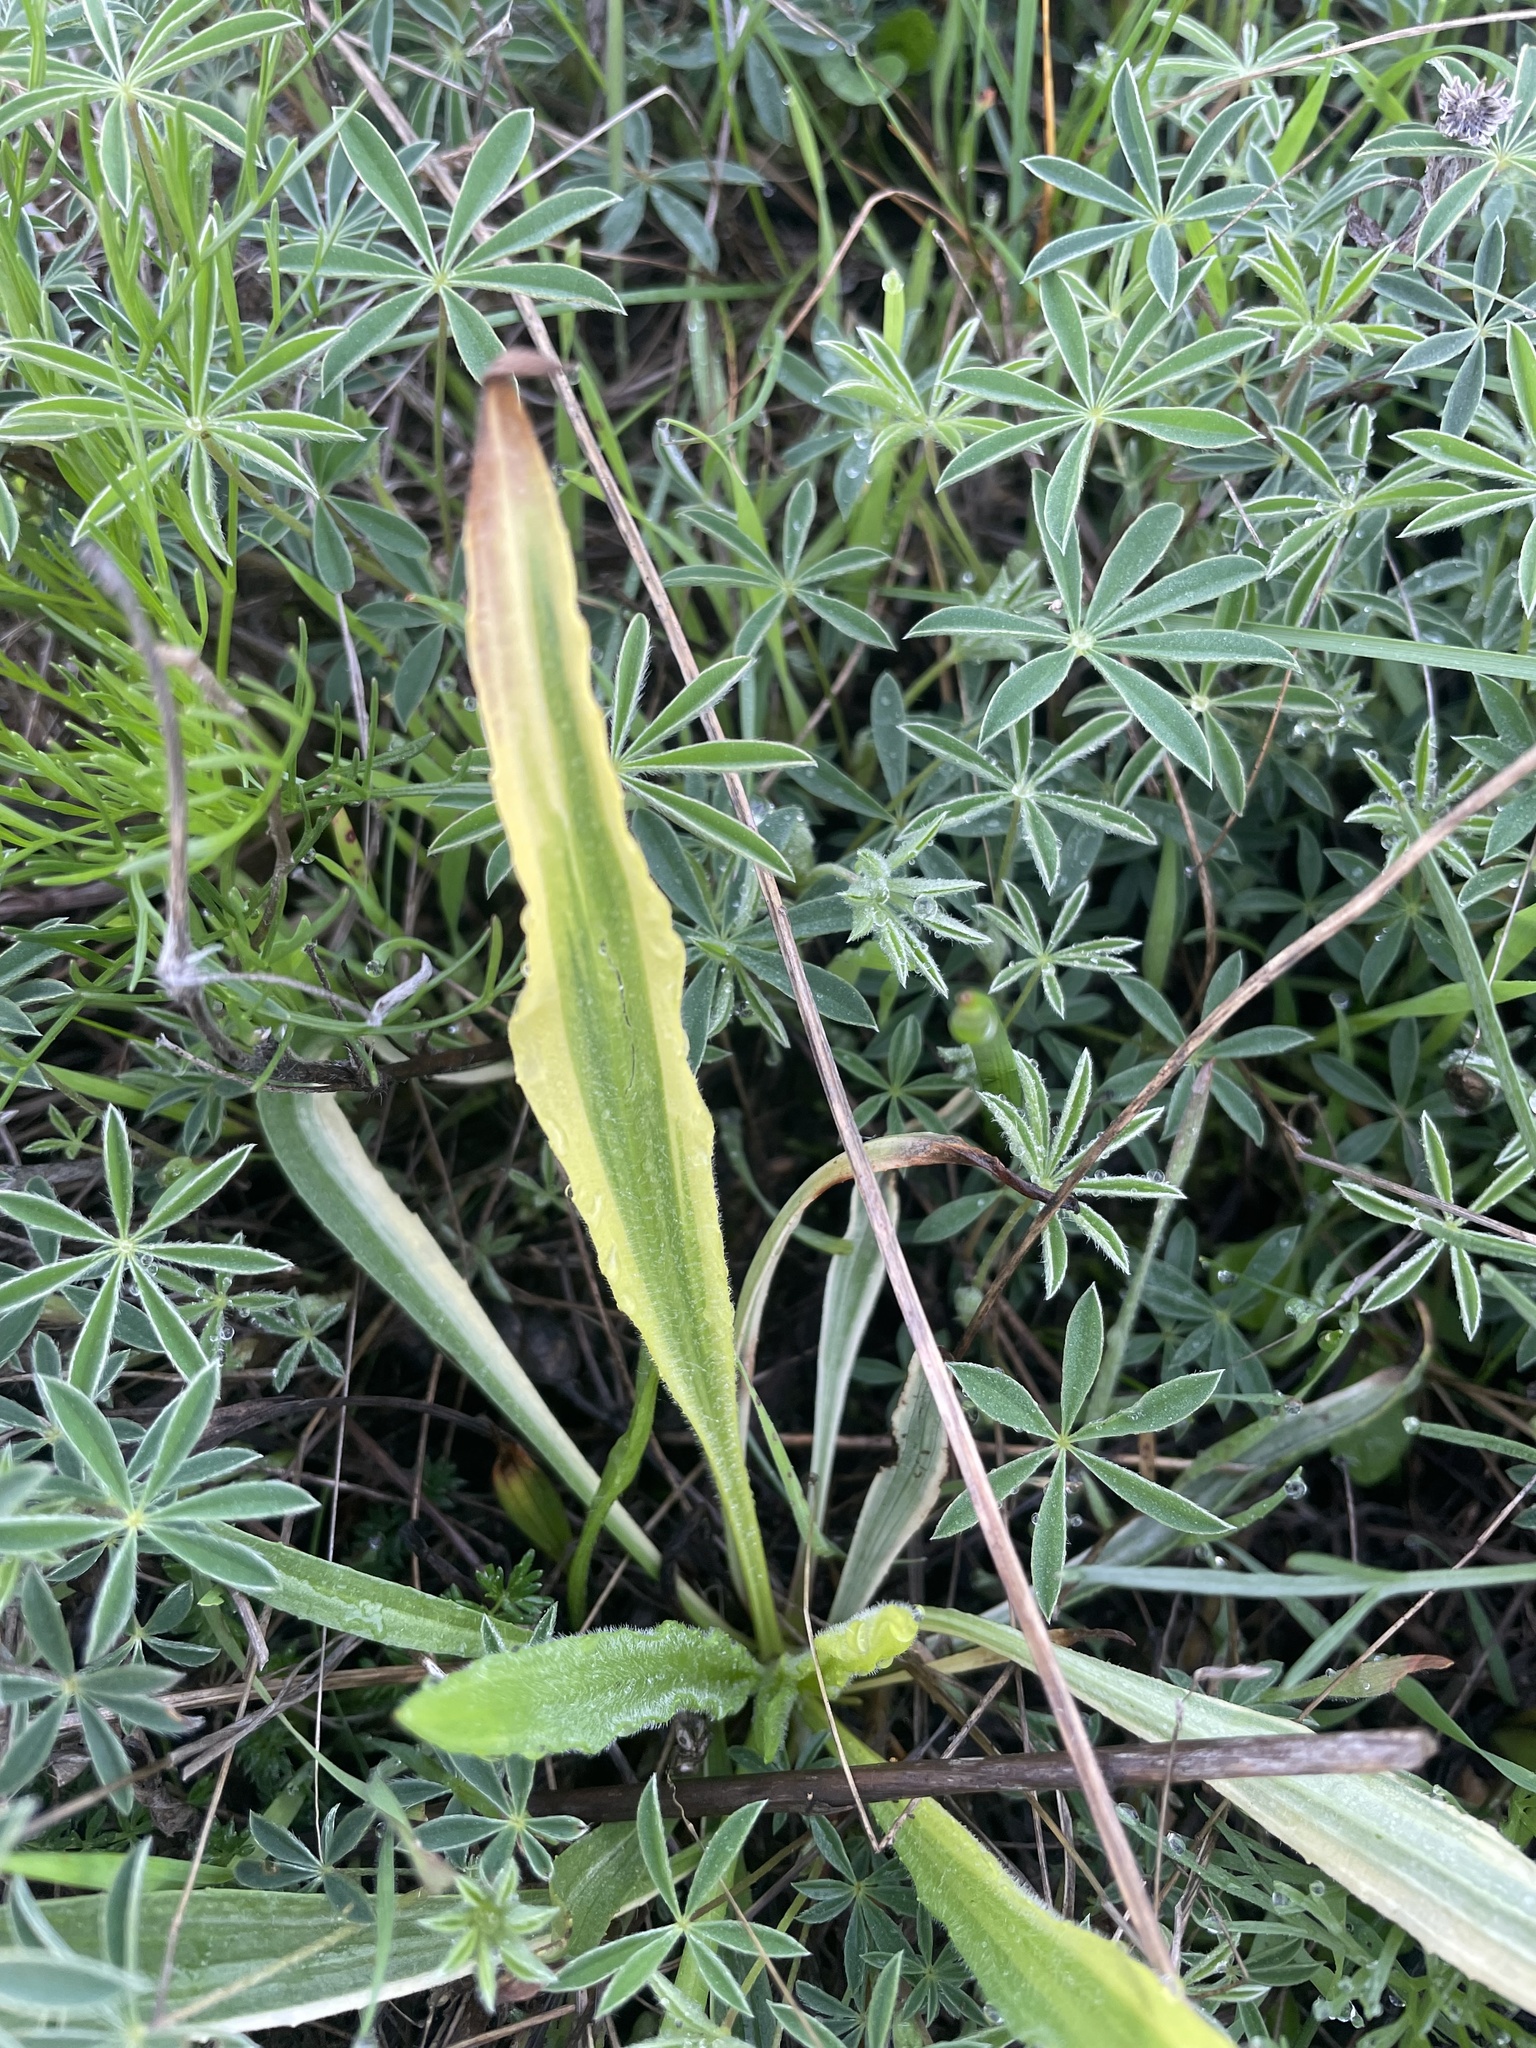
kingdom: Plantae
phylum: Tracheophyta
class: Magnoliopsida
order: Lamiales
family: Plantaginaceae
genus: Plantago
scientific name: Plantago lanceolata
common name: Ribwort plantain
